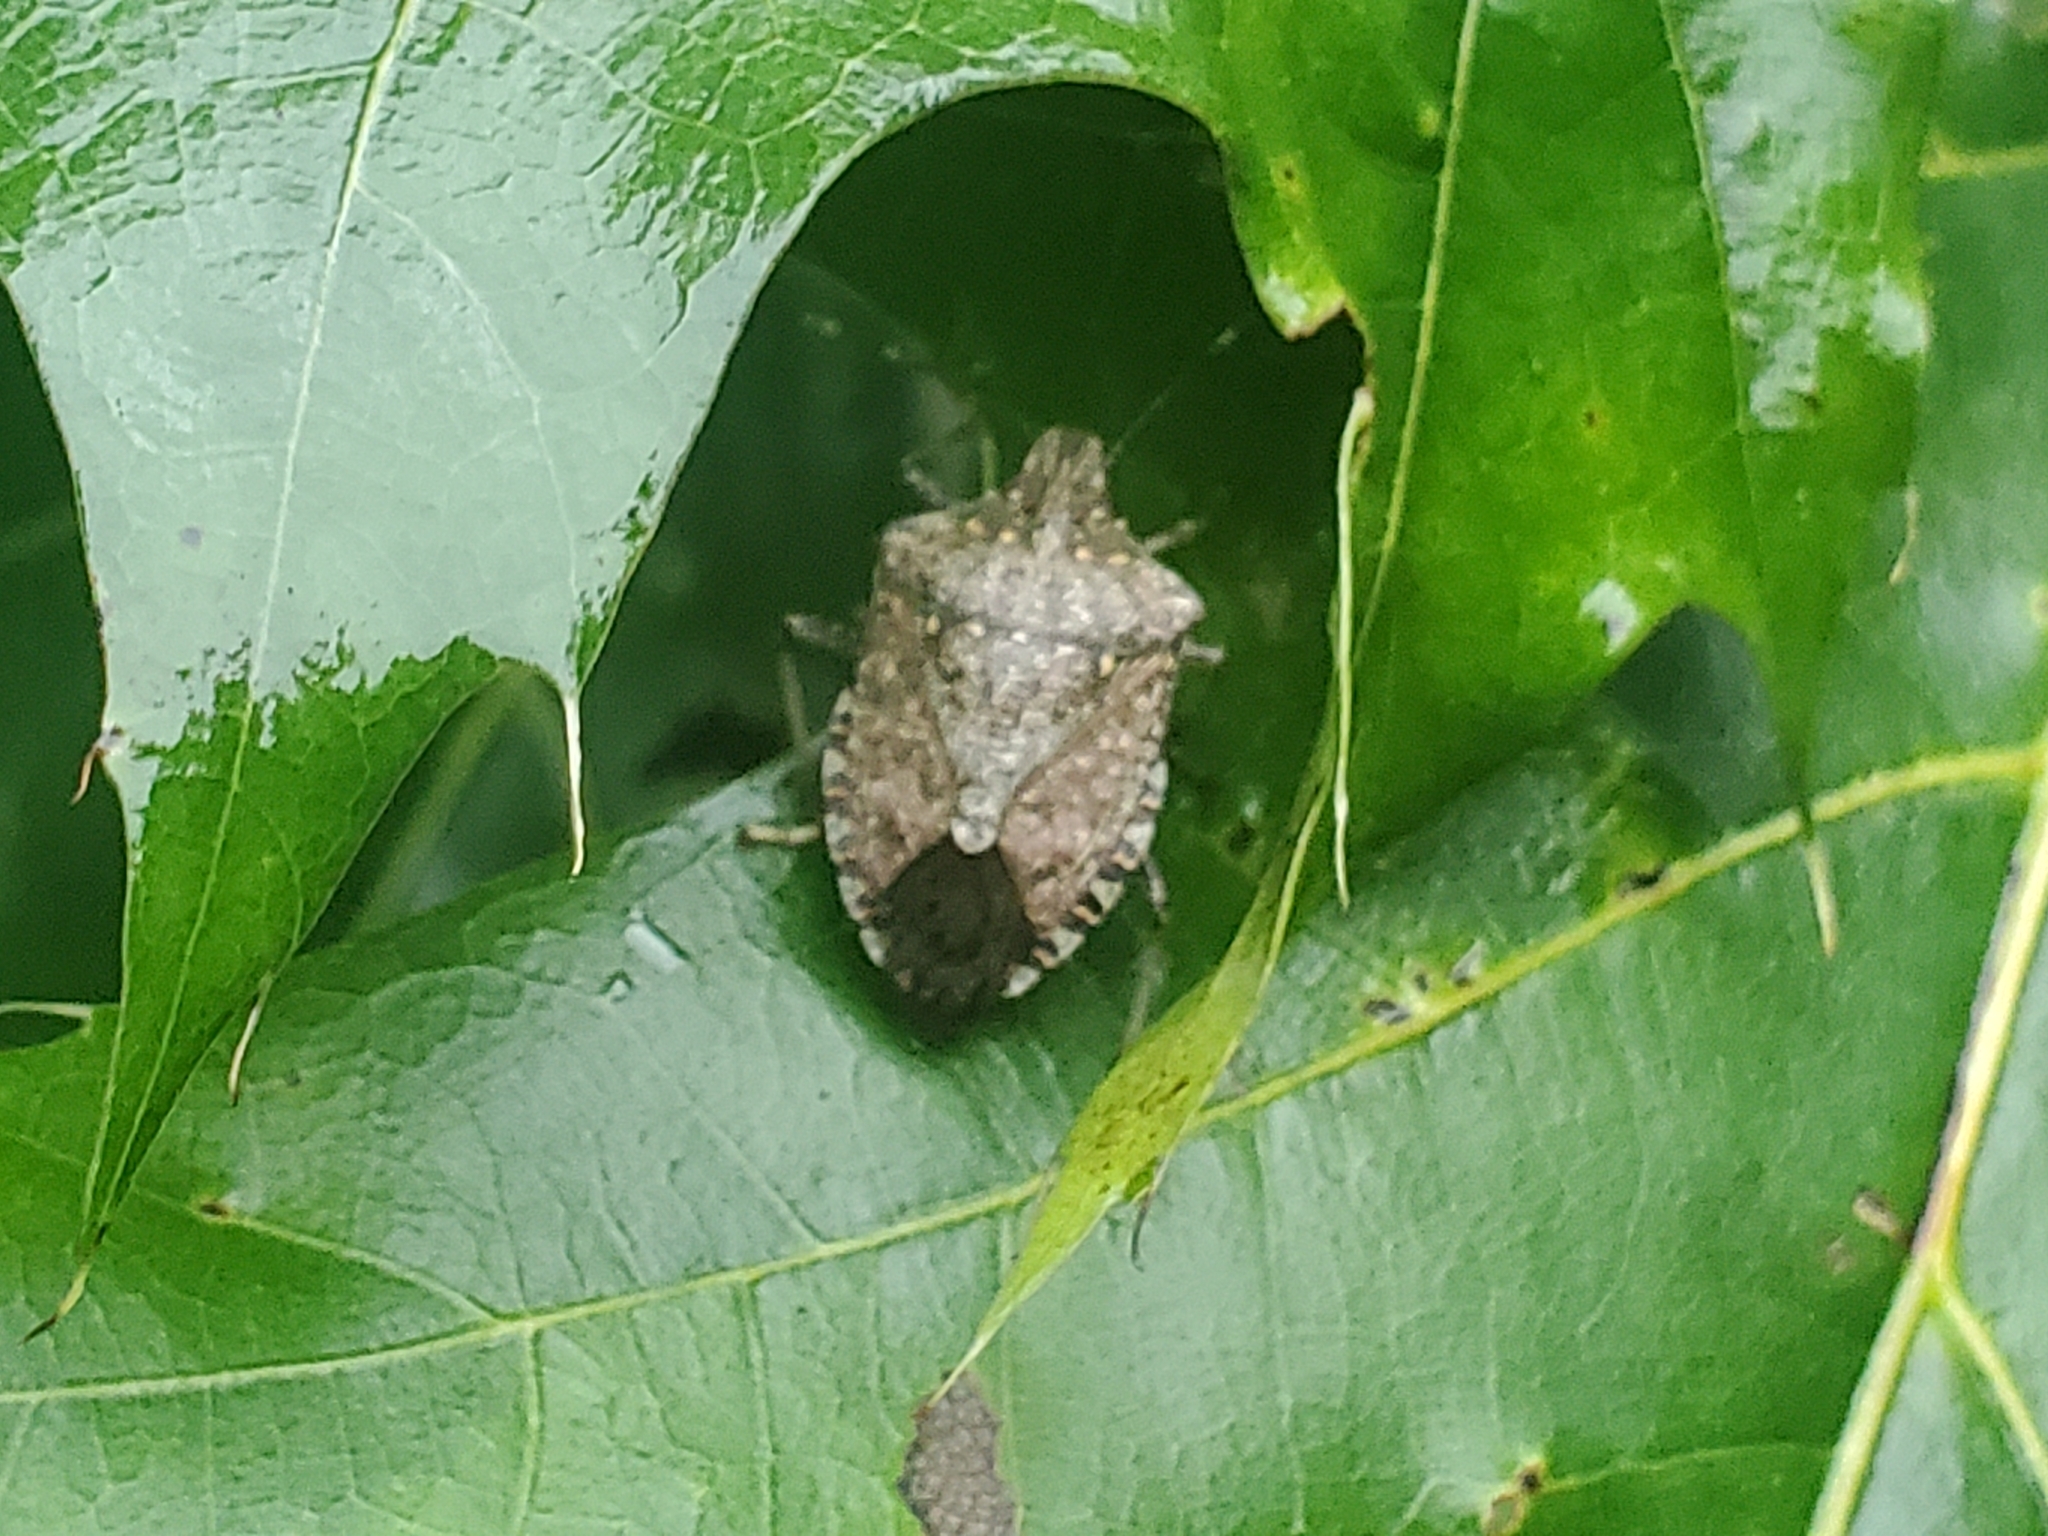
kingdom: Animalia
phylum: Arthropoda
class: Insecta
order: Hemiptera
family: Pentatomidae
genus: Halyomorpha
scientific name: Halyomorpha halys
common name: Brown marmorated stink bug
